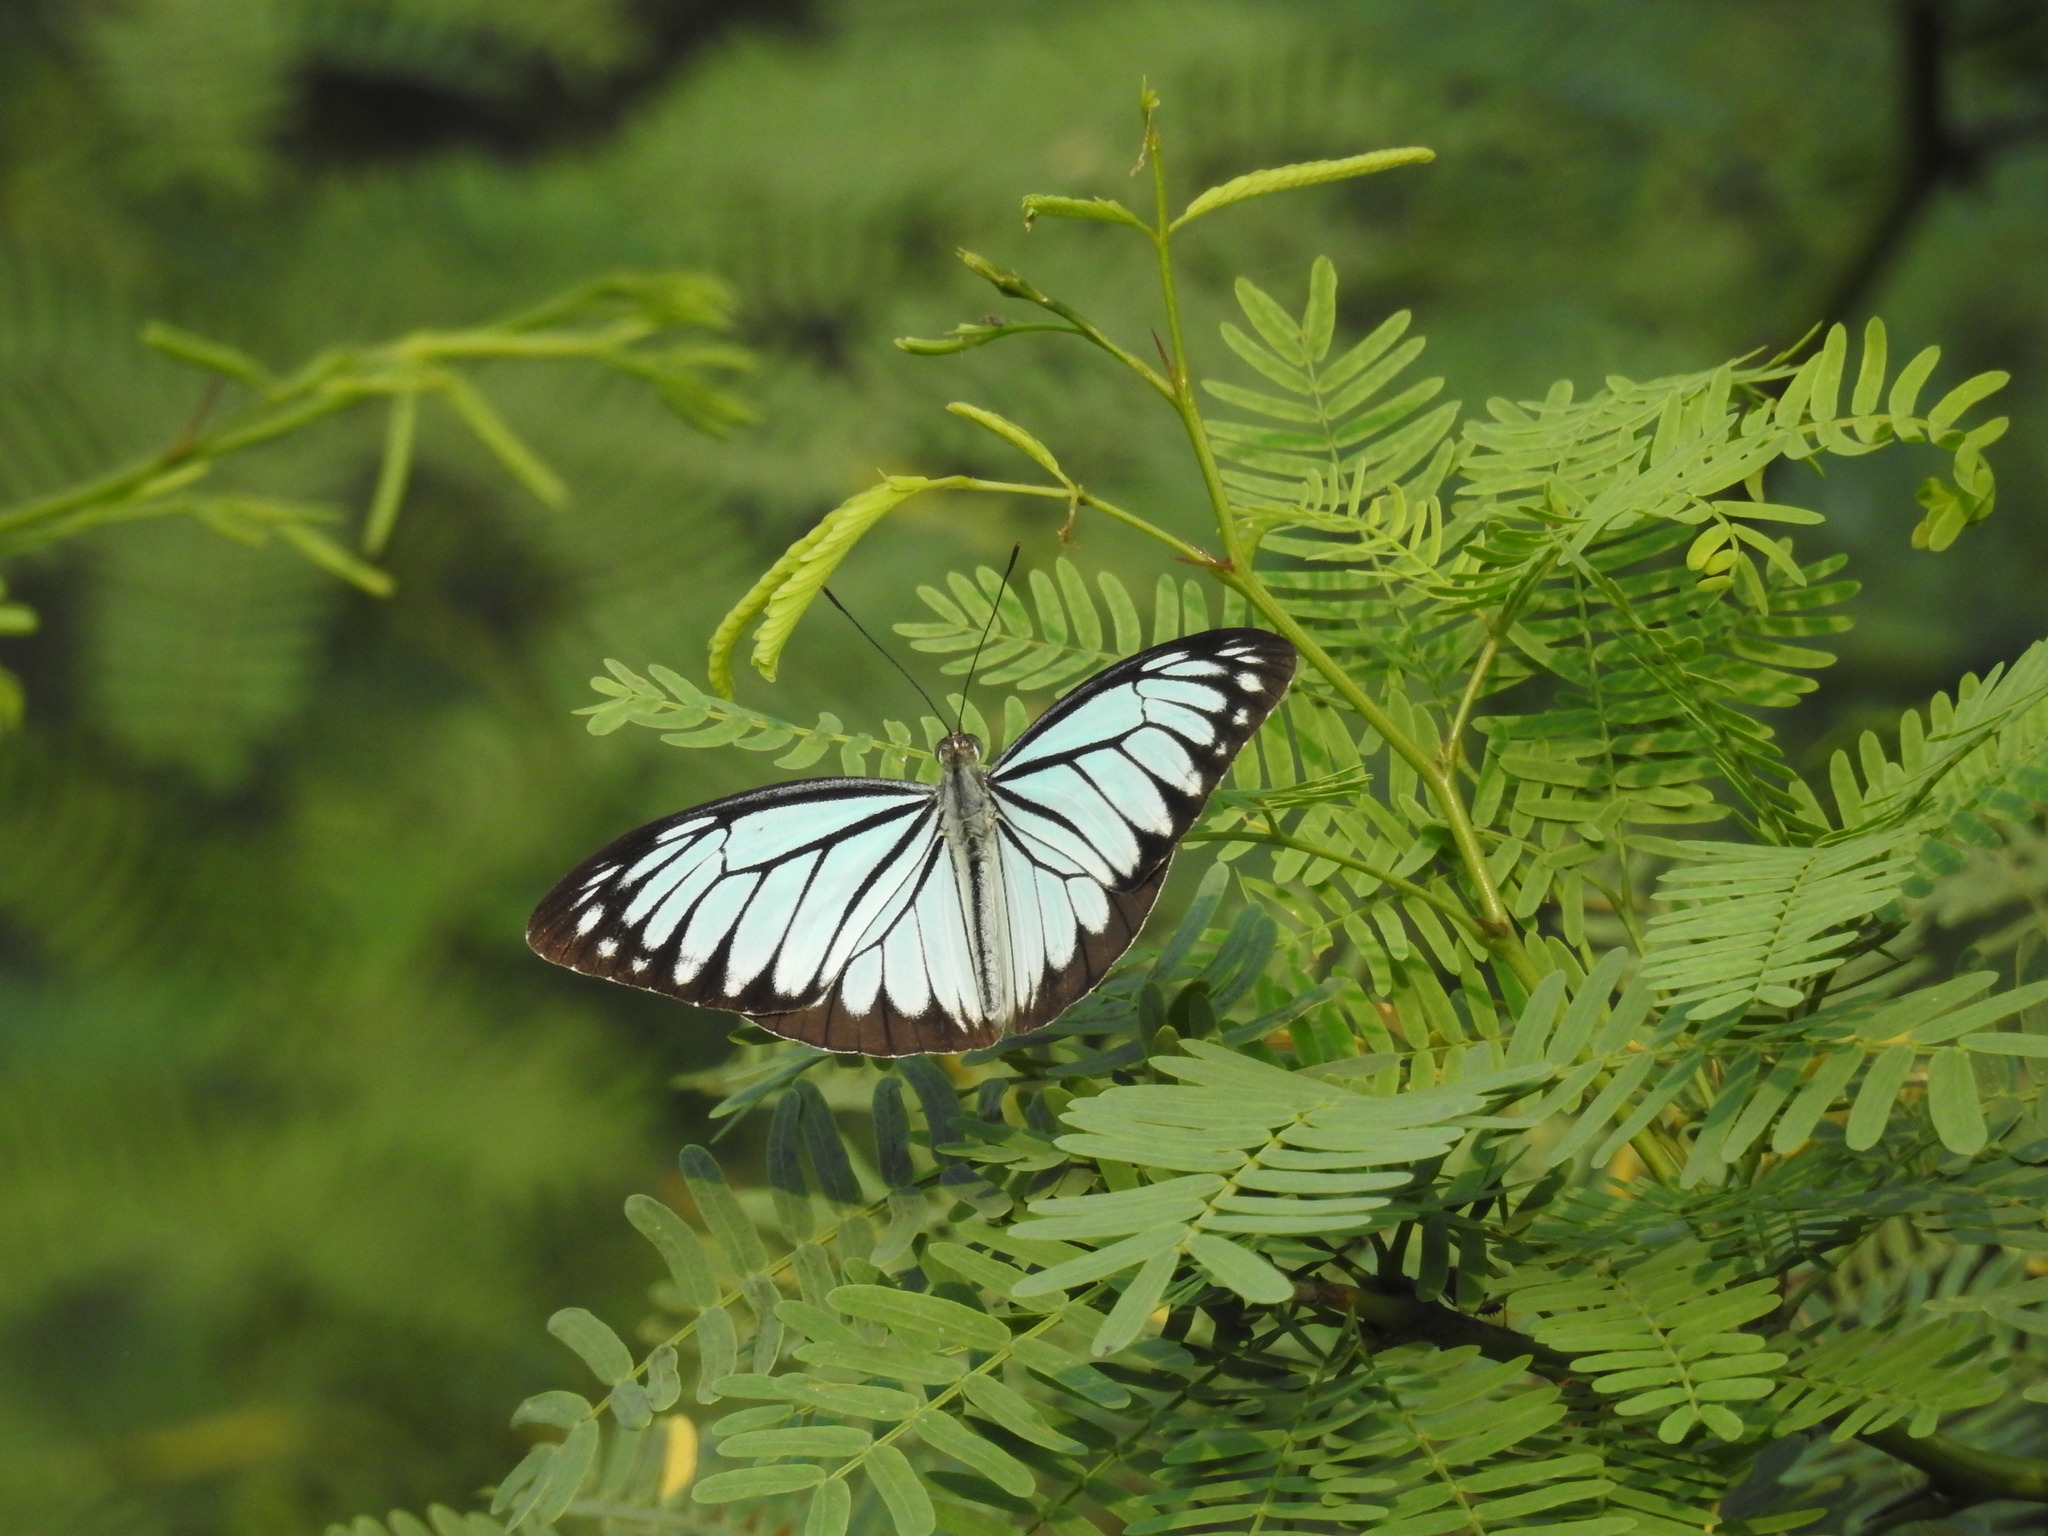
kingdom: Animalia
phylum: Arthropoda
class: Insecta
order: Lepidoptera
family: Pieridae
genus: Pareronia
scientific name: Pareronia hippia
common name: Indian wanderer
